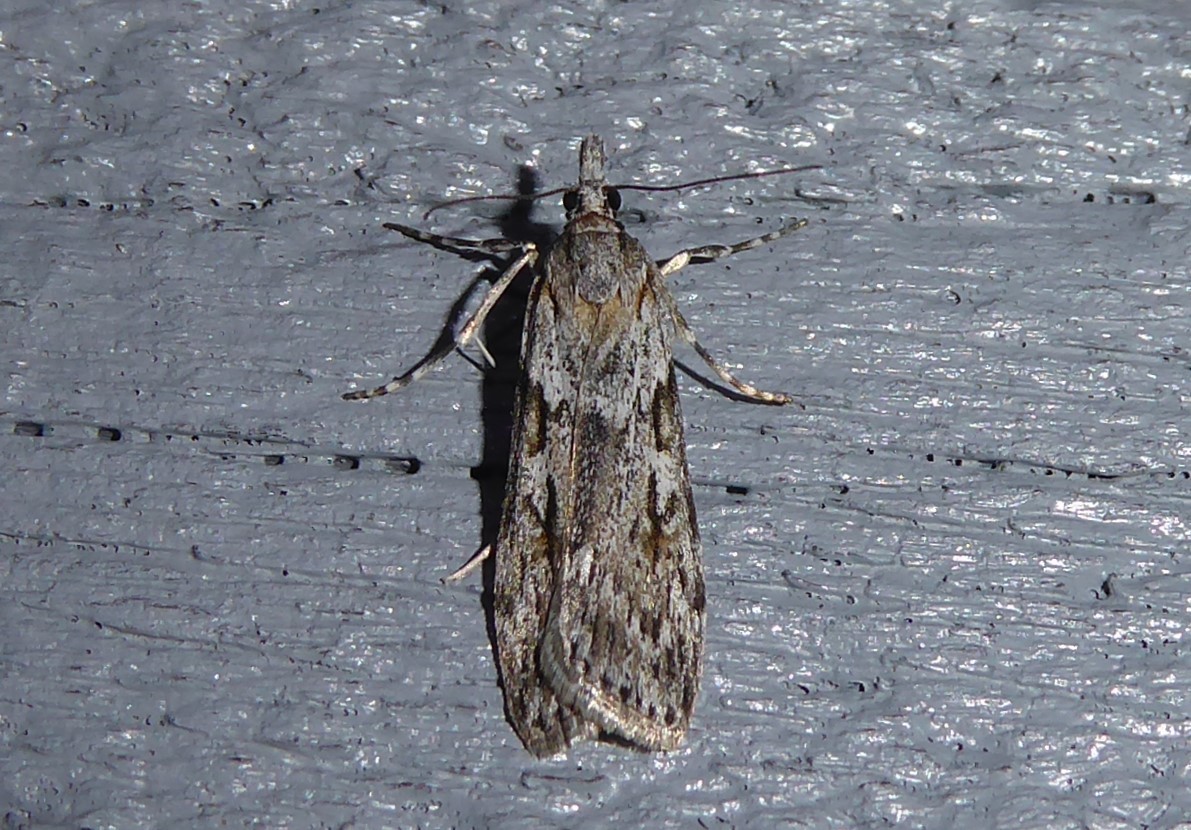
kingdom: Animalia
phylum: Arthropoda
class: Insecta
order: Lepidoptera
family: Crambidae
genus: Scoparia
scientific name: Scoparia halopis
